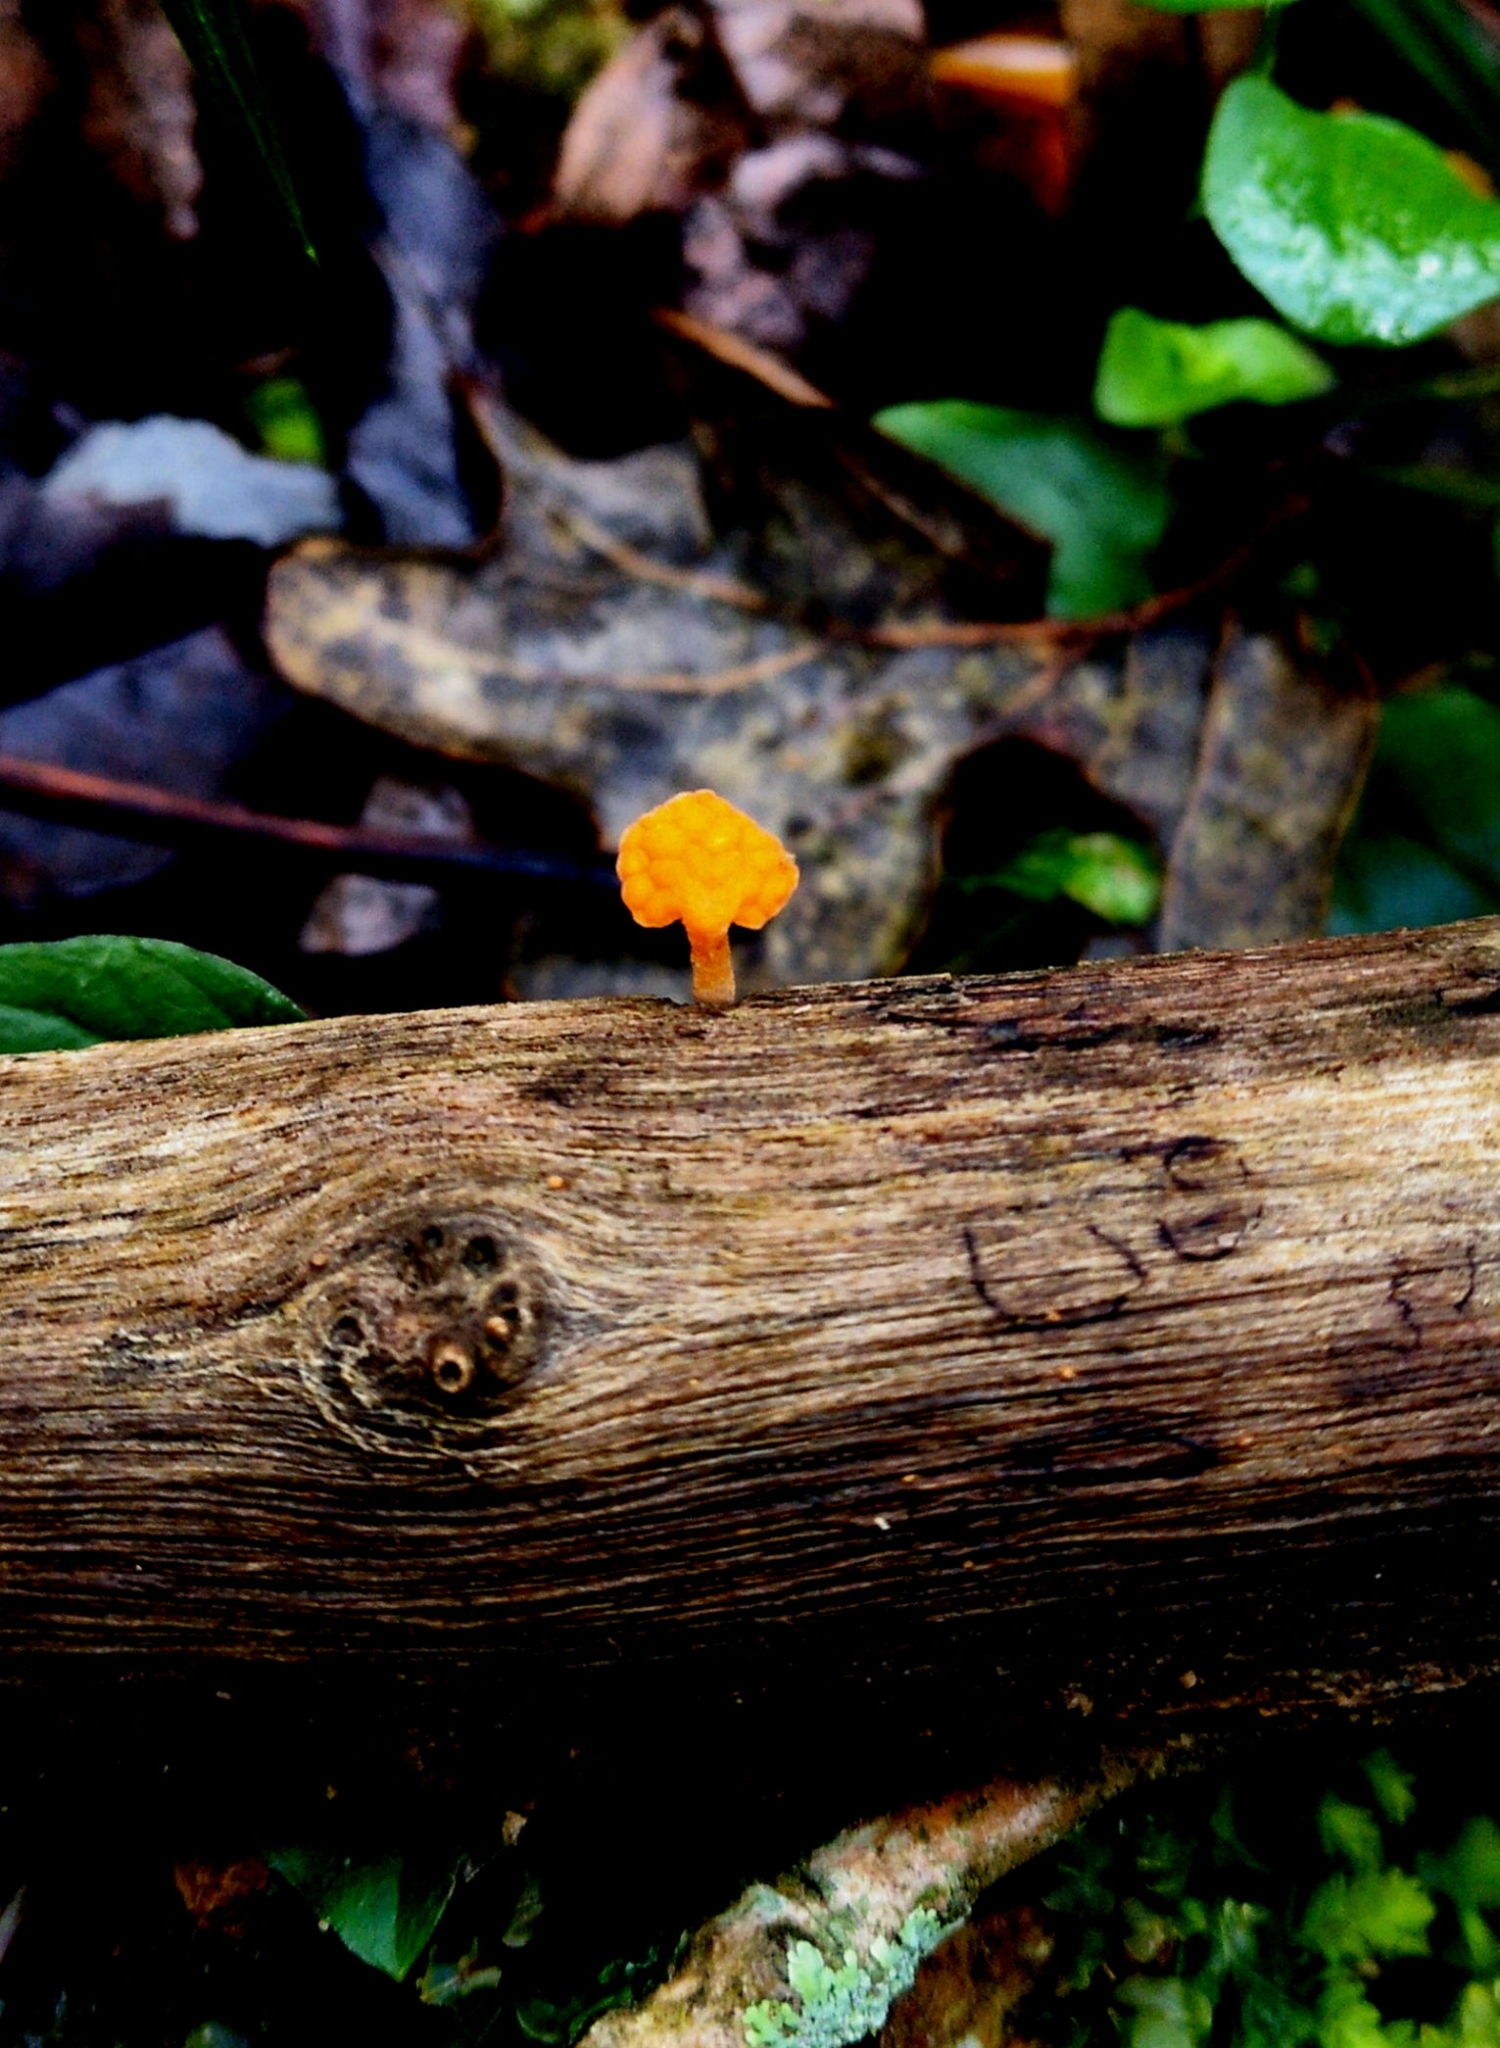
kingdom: Fungi
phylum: Basidiomycota
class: Agaricomycetes
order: Agaricales
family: Mycenaceae
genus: Favolaschia
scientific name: Favolaschia claudopus
